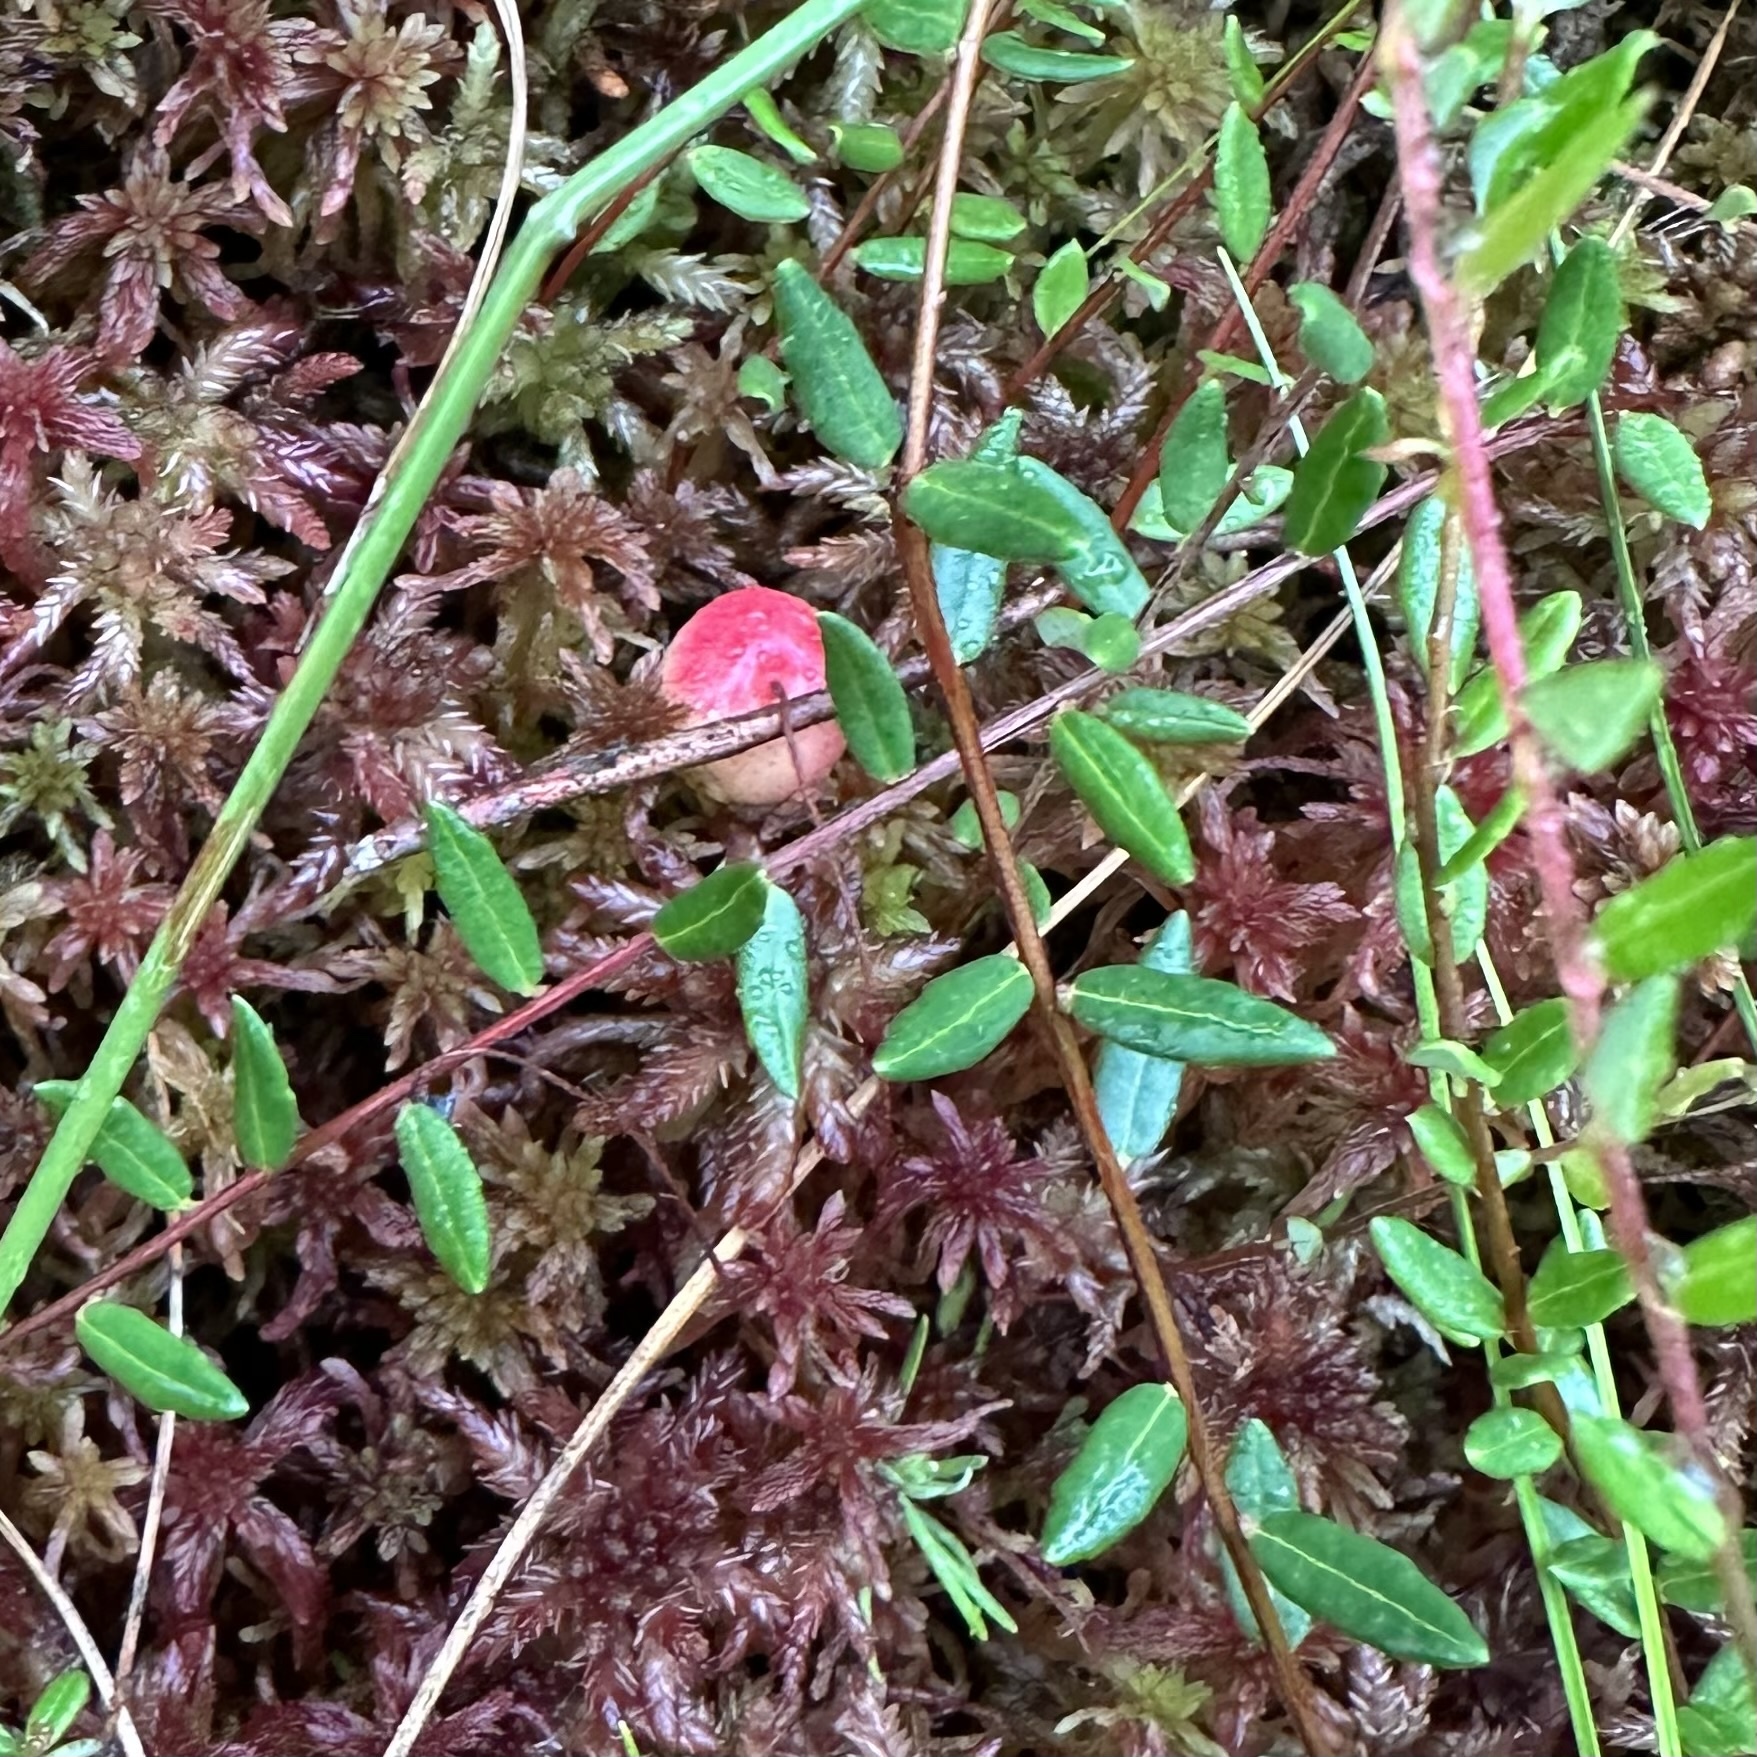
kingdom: Plantae
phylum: Tracheophyta
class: Magnoliopsida
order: Ericales
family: Ericaceae
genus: Vaccinium
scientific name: Vaccinium oxycoccos
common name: Cranberry
